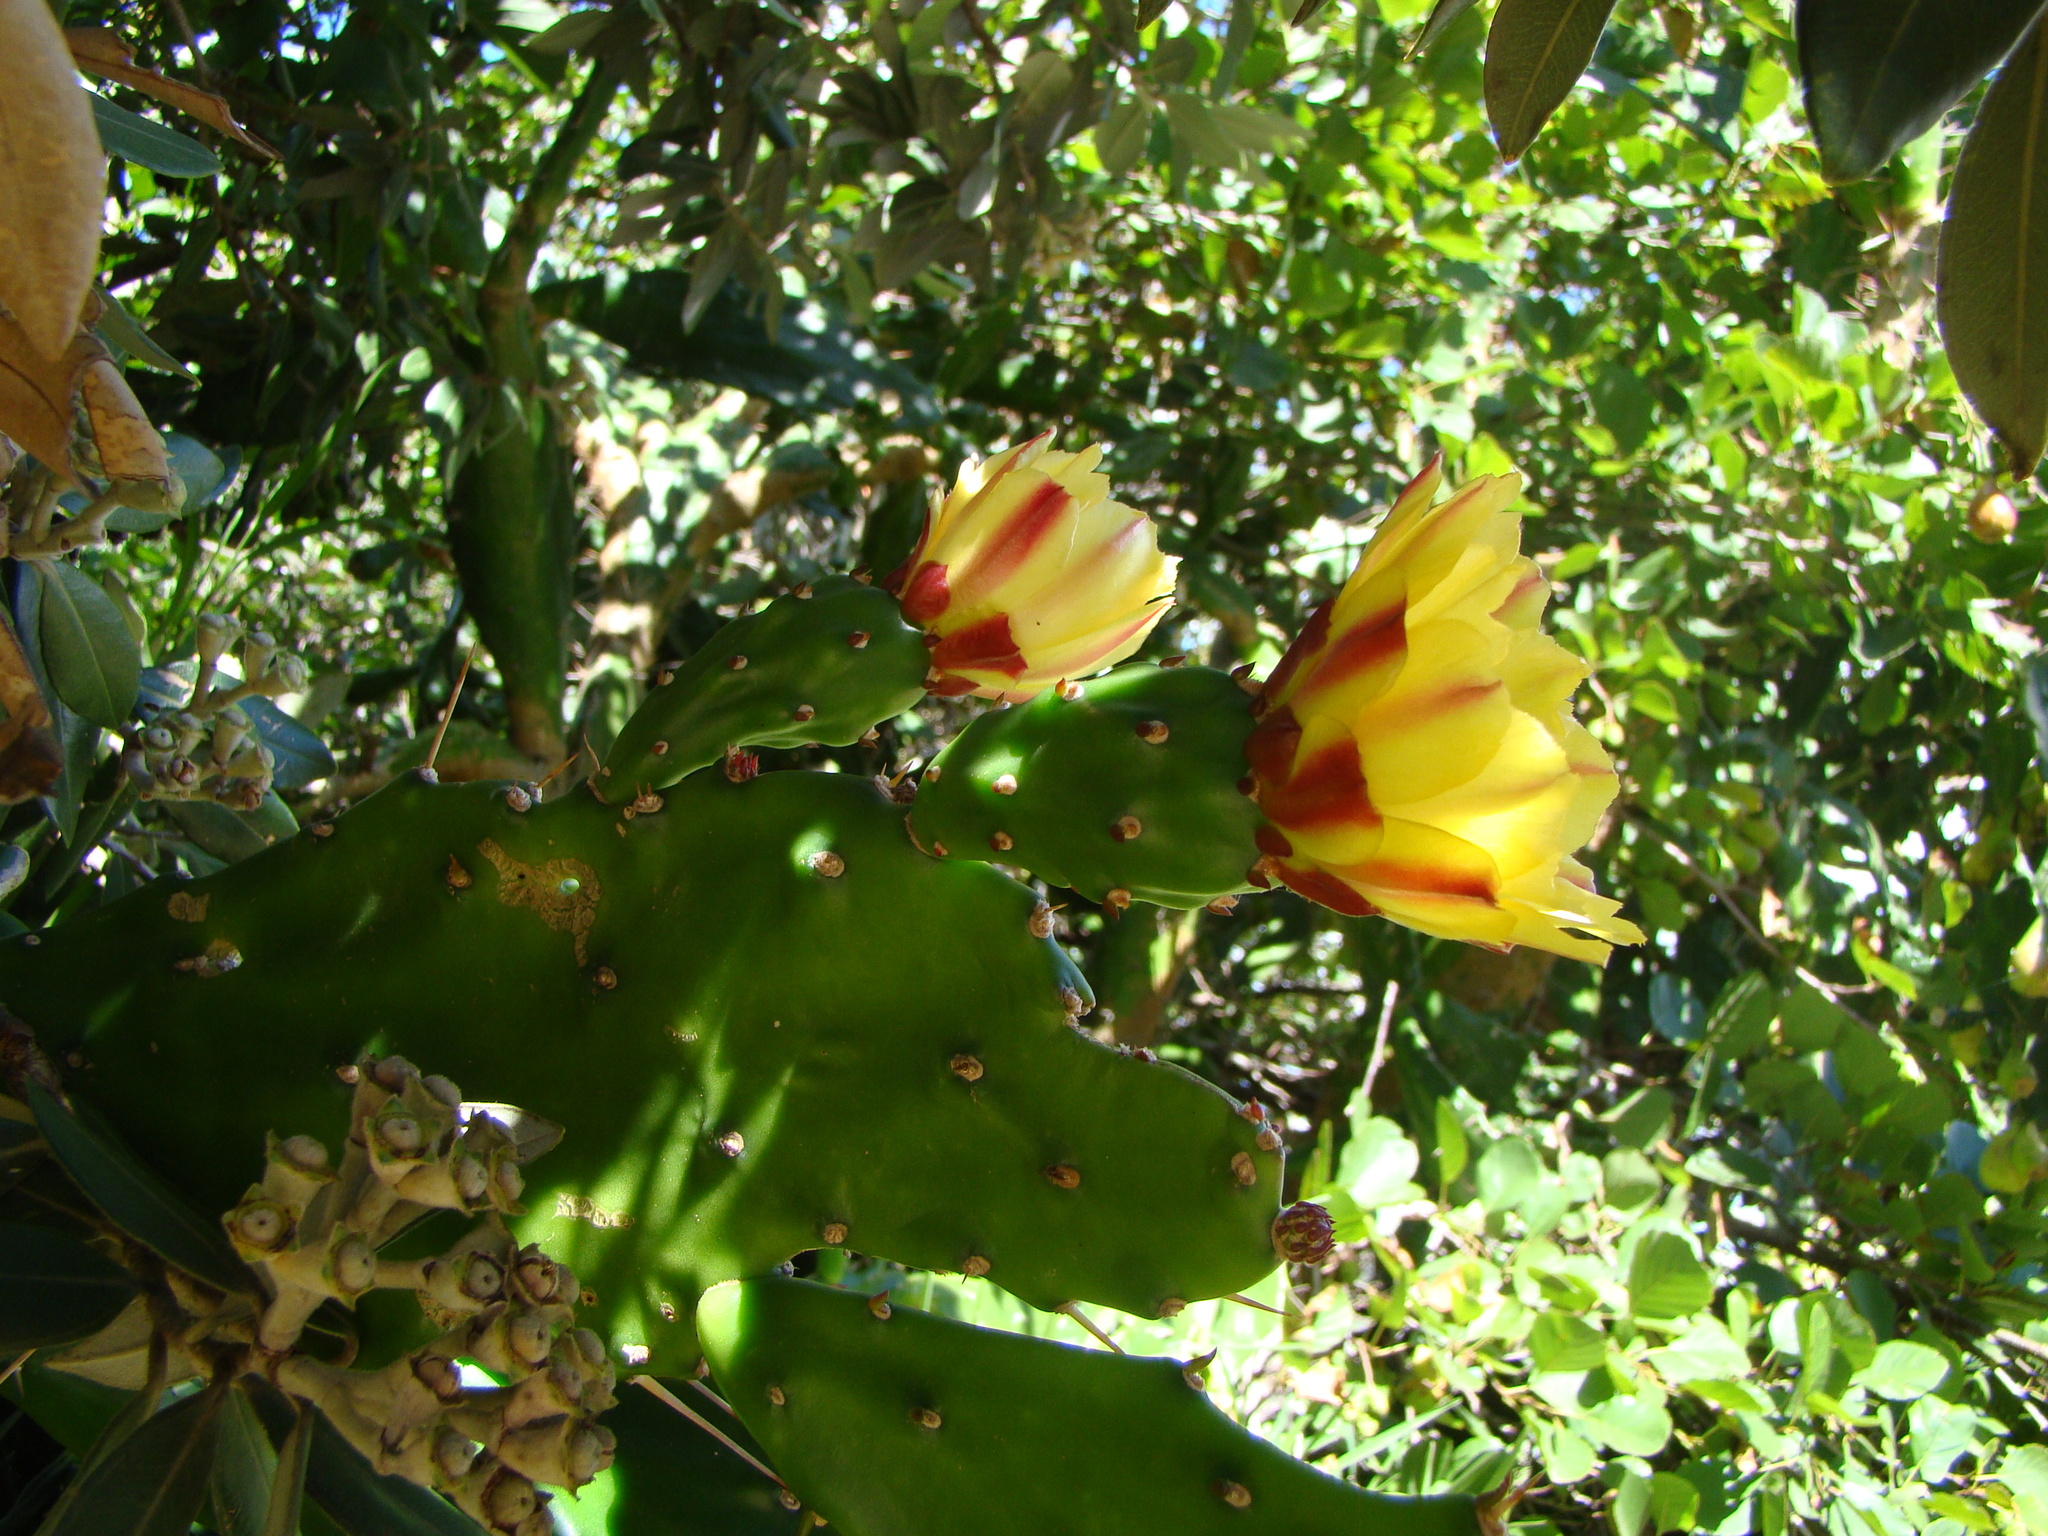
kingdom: Plantae
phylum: Tracheophyta
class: Magnoliopsida
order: Caryophyllales
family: Cactaceae
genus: Opuntia
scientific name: Opuntia monacantha
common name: Common pricklypear
